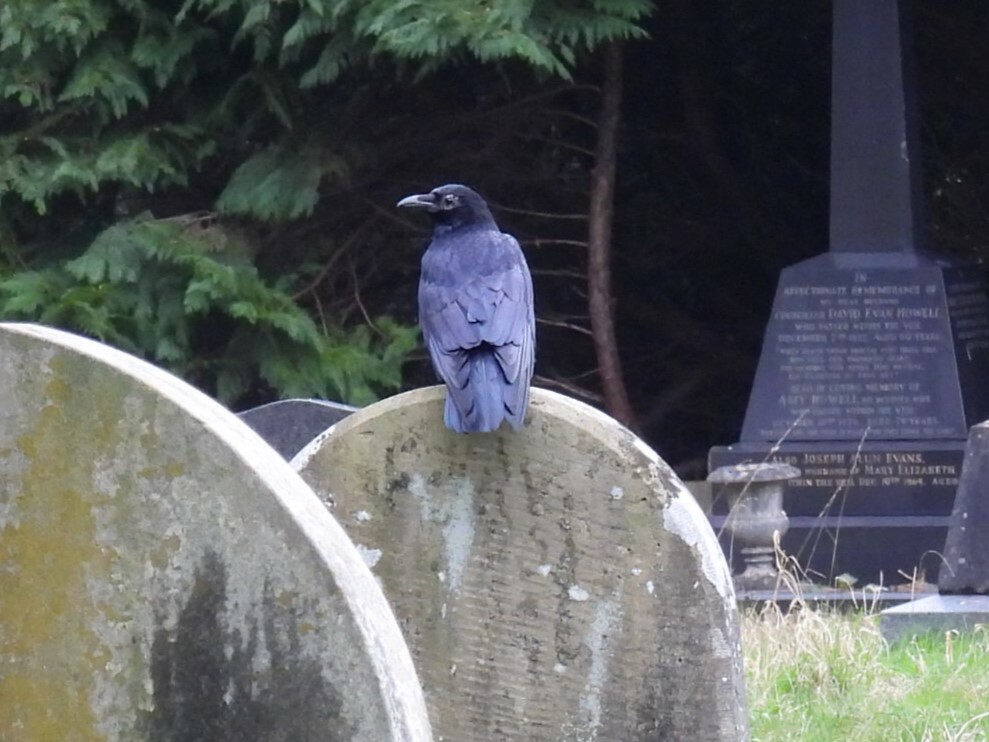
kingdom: Animalia
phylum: Chordata
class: Aves
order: Passeriformes
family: Corvidae
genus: Corvus
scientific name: Corvus corone
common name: Carrion crow
